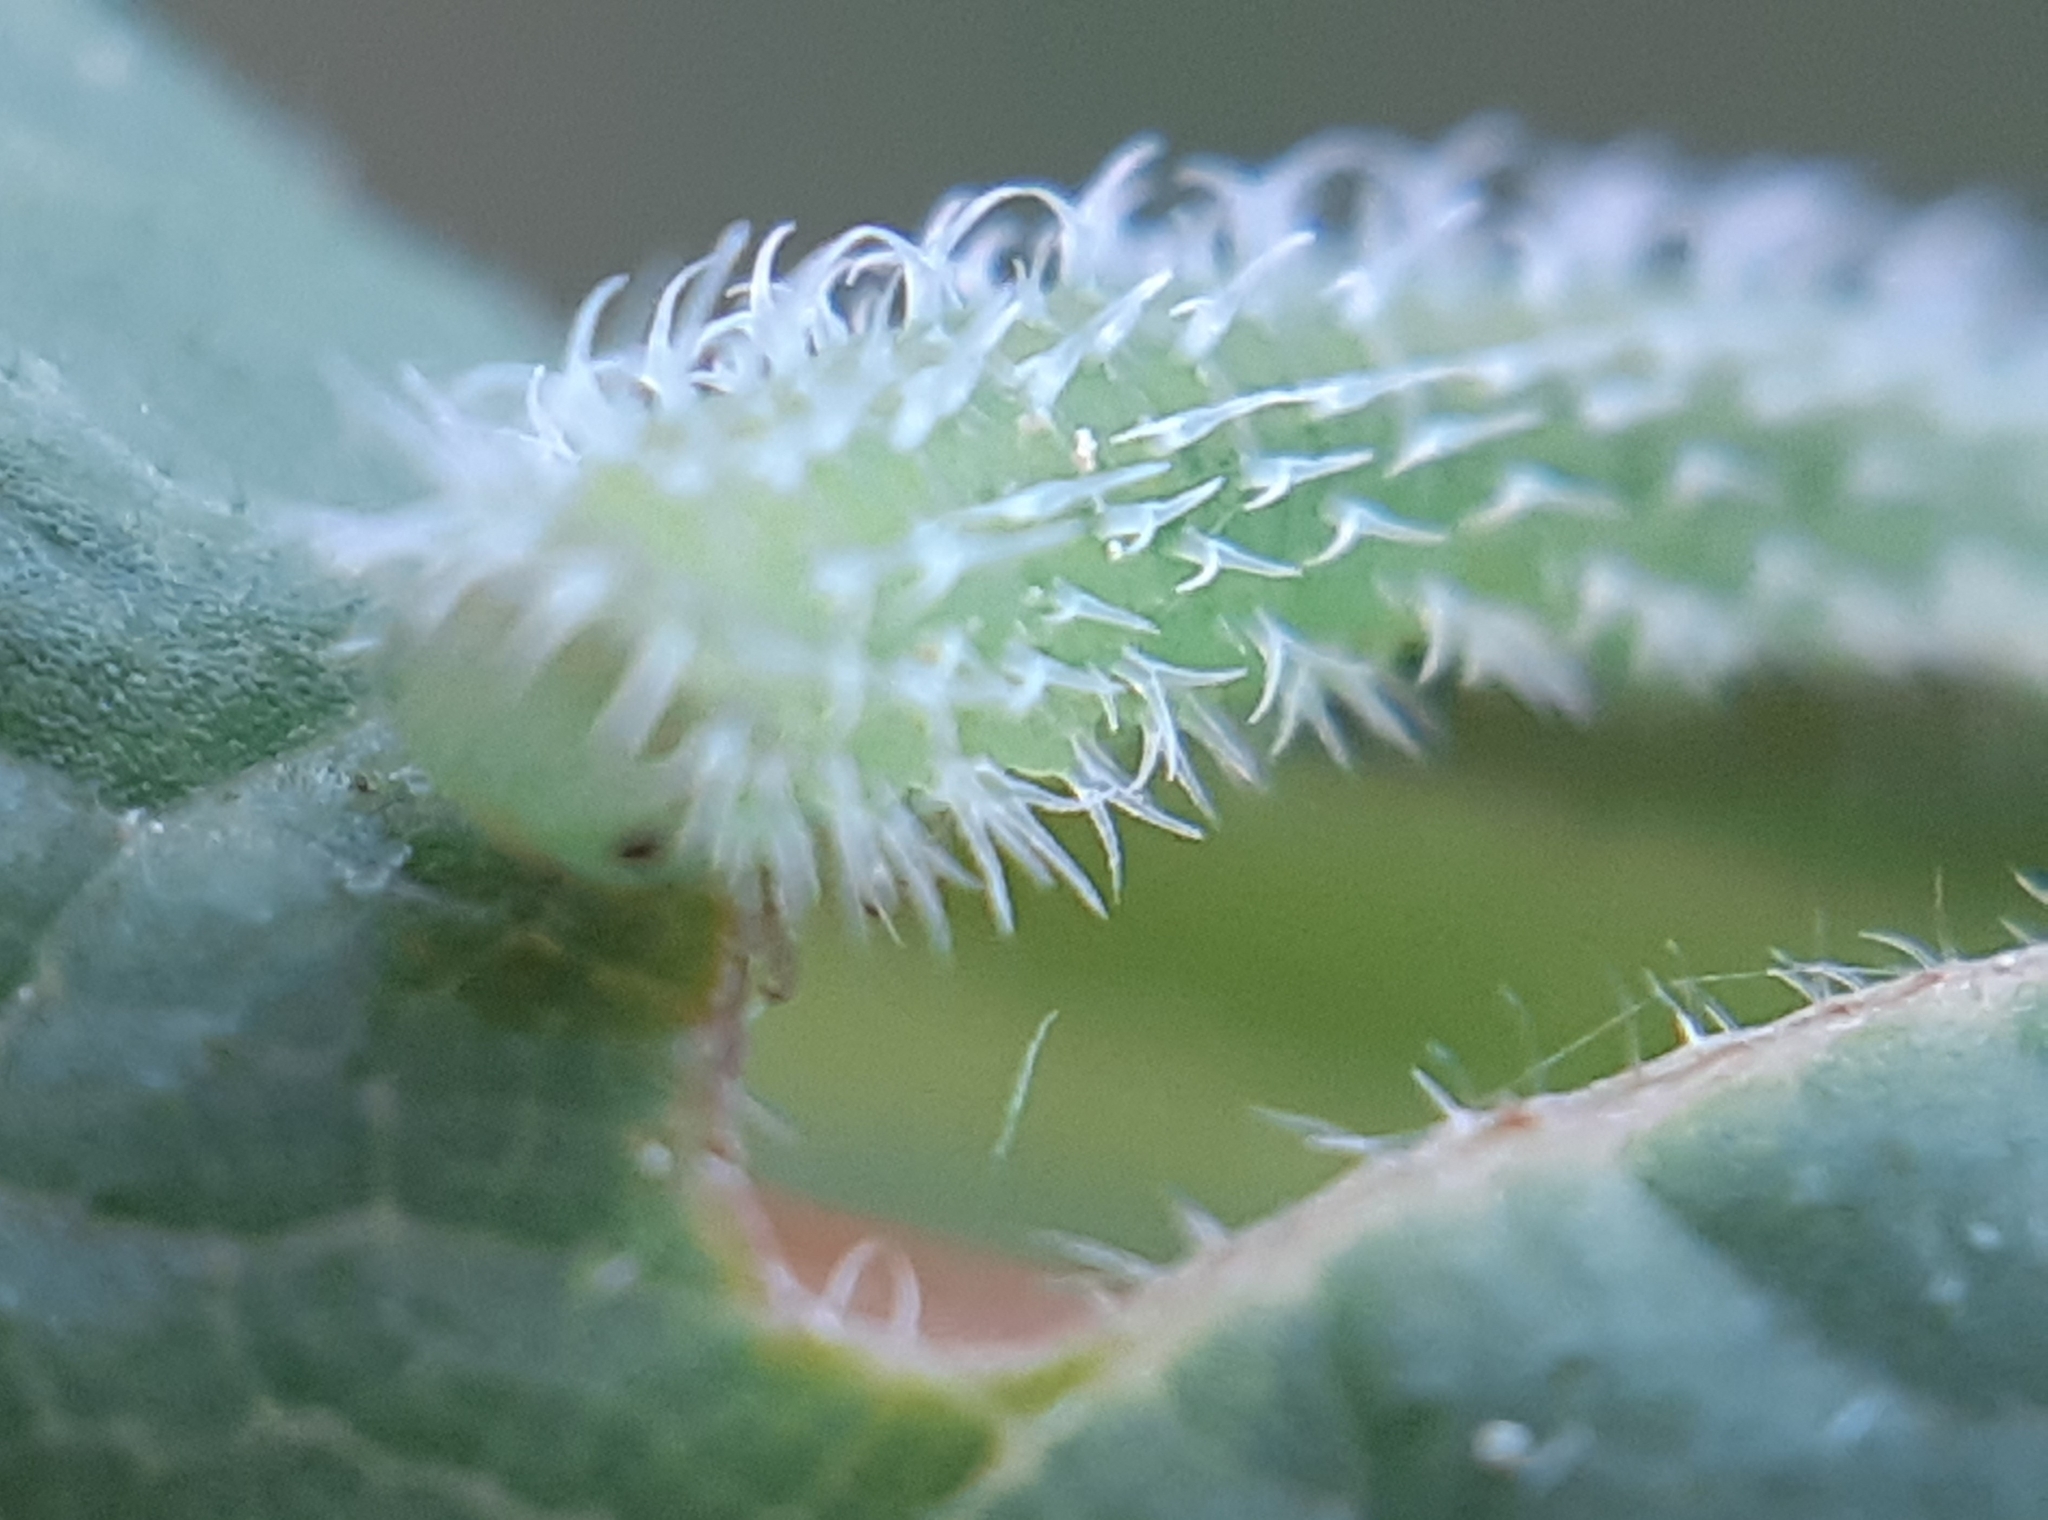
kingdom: Animalia
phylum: Arthropoda
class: Insecta
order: Hymenoptera
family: Tenthredinidae
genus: Pareophora
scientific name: Pareophora pruni
